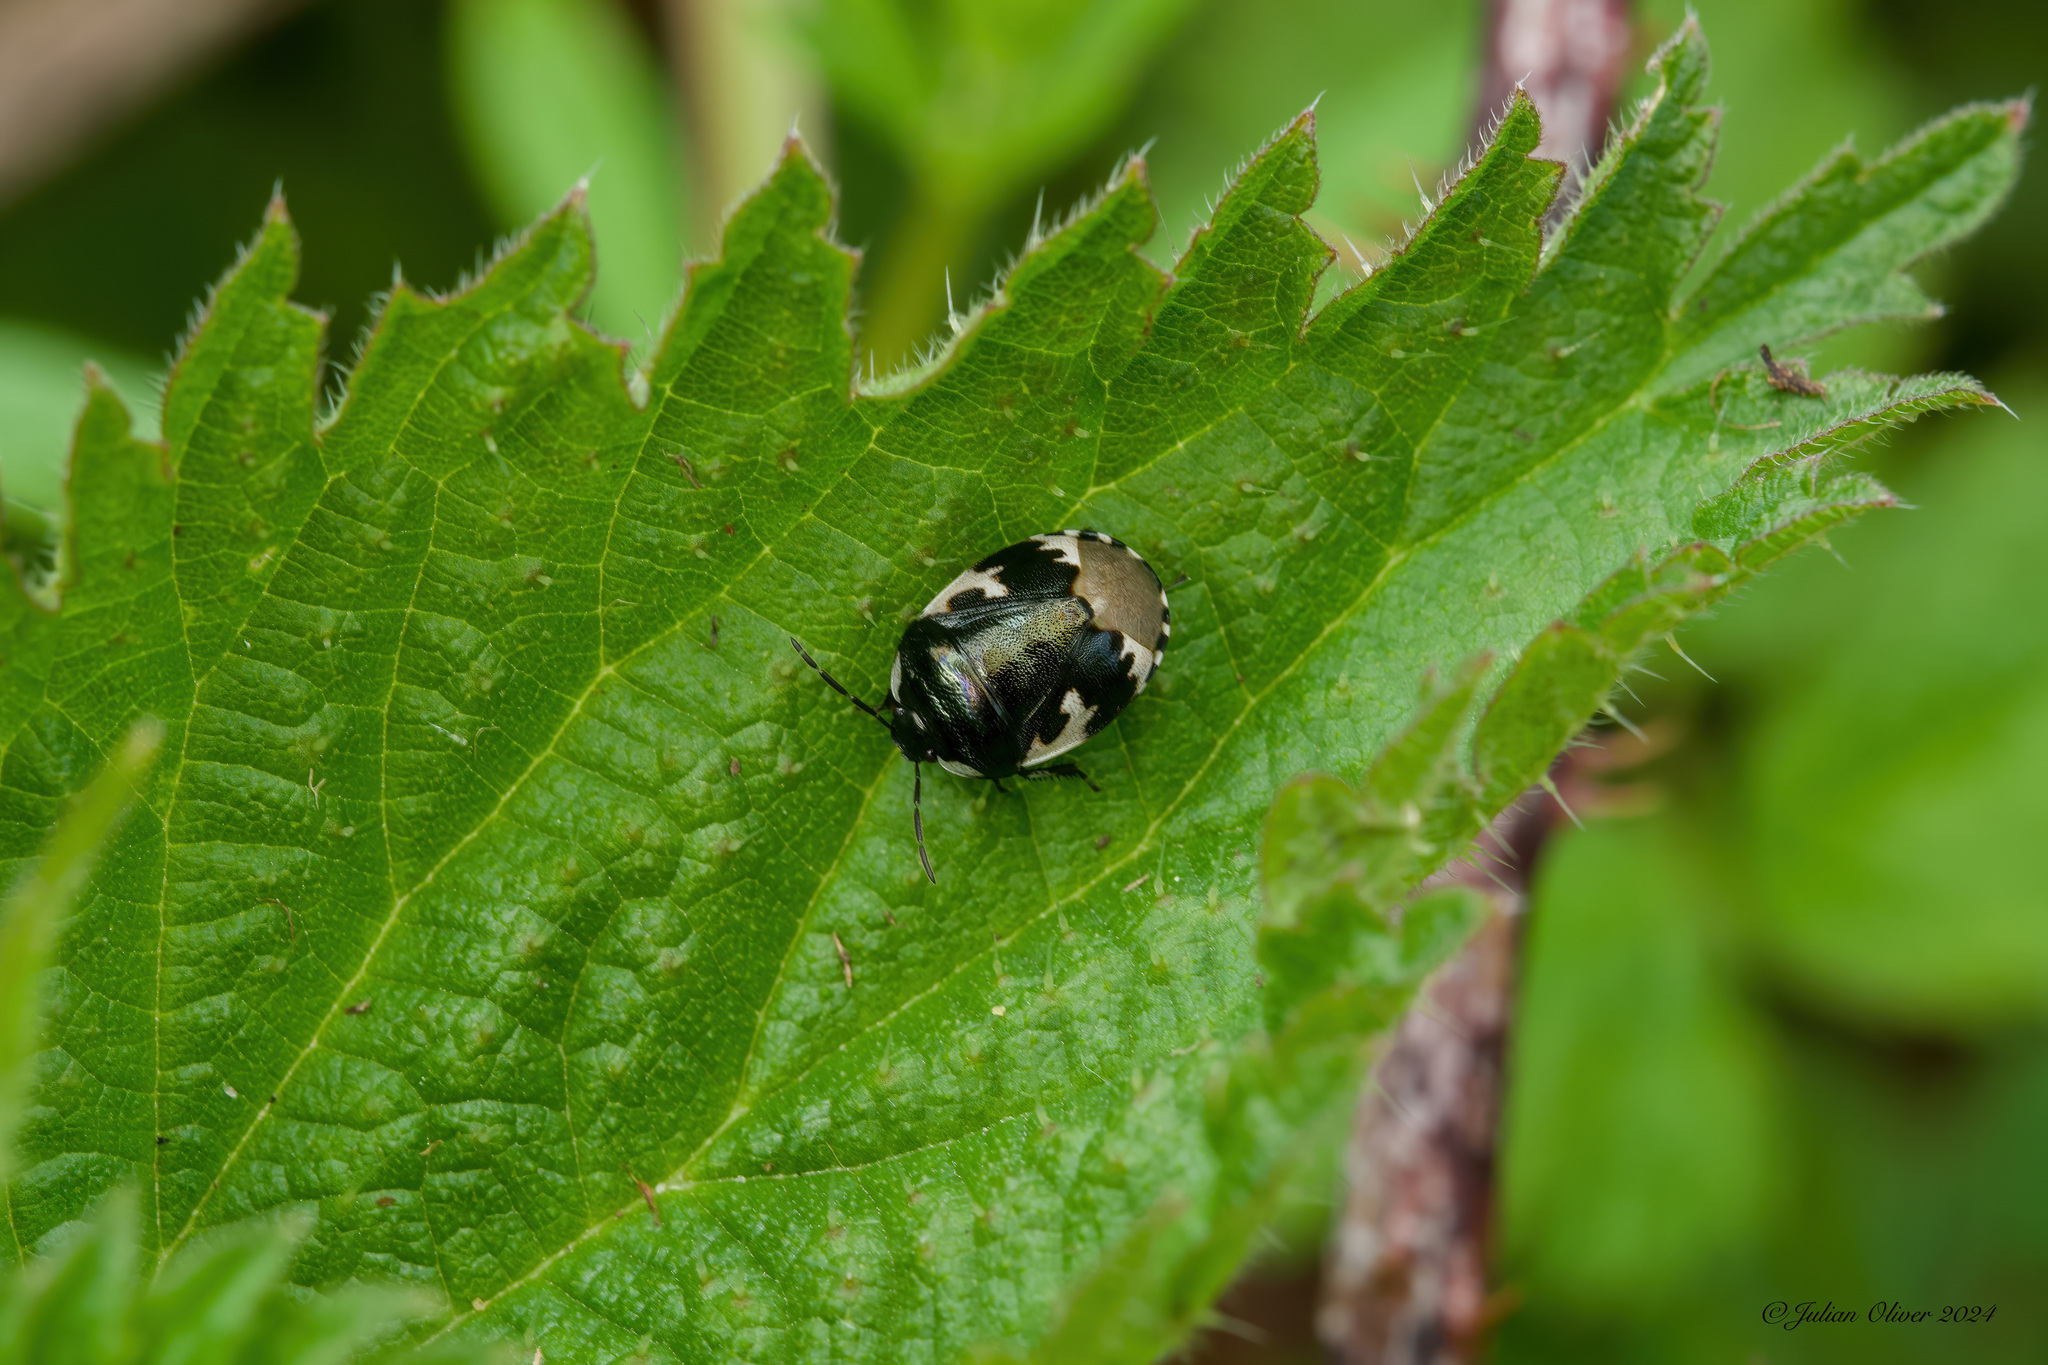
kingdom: Animalia
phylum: Arthropoda
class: Insecta
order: Hemiptera
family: Cydnidae
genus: Tritomegas
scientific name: Tritomegas bicolor
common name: Pied shieldbug
